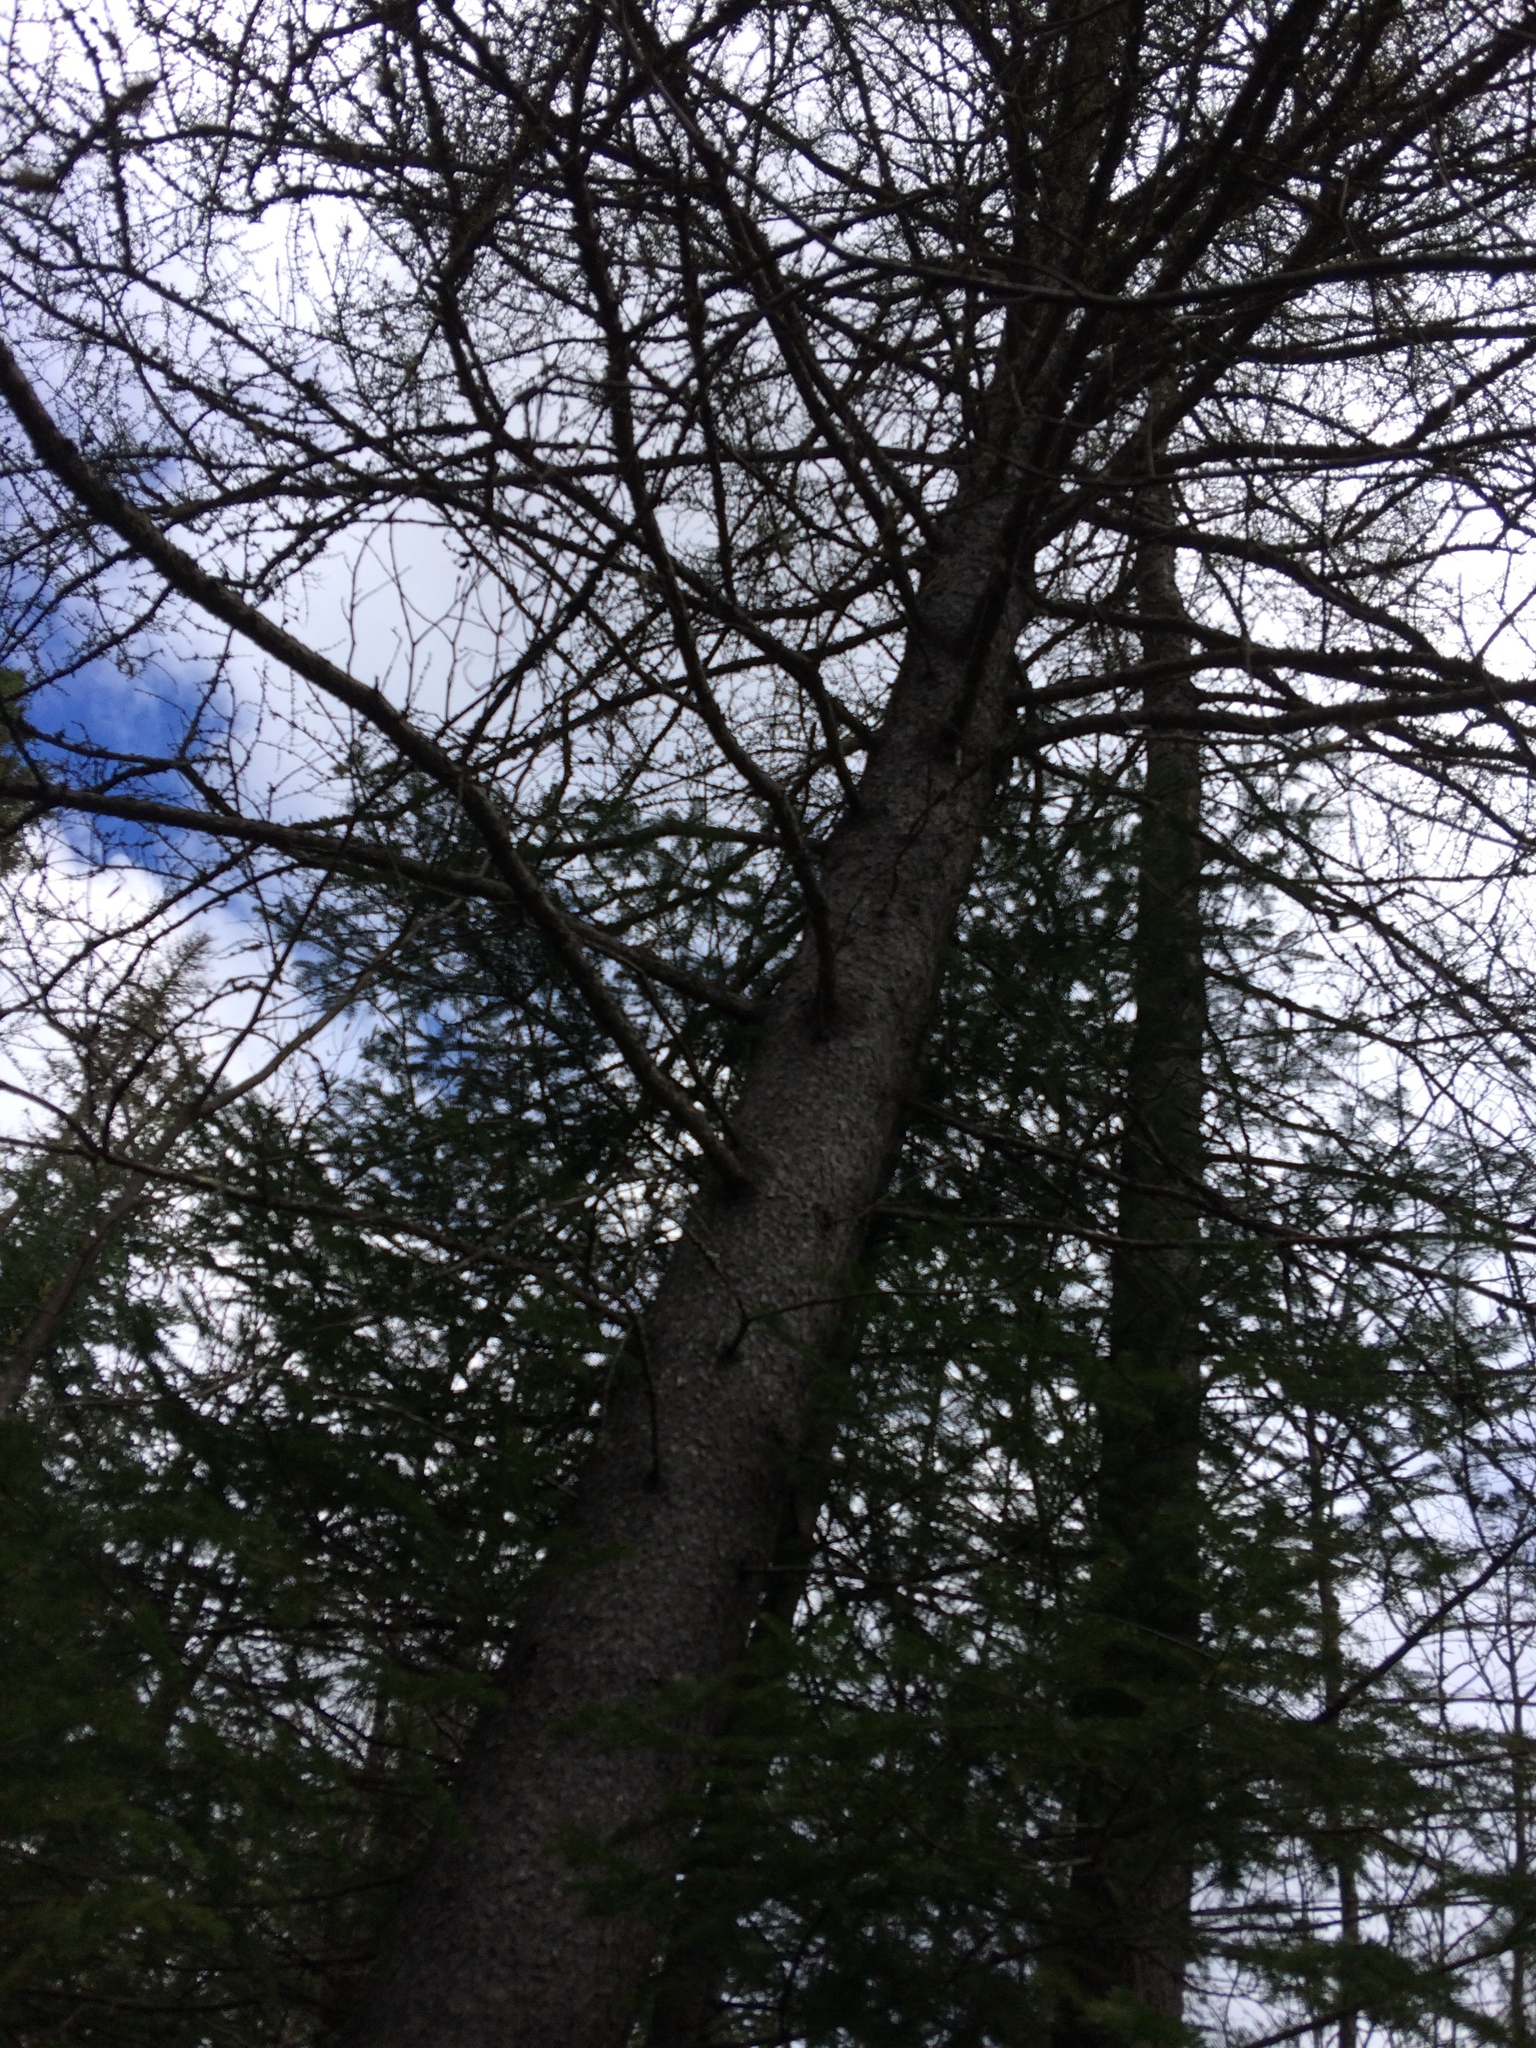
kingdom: Plantae
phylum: Tracheophyta
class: Pinopsida
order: Pinales
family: Pinaceae
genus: Larix
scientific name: Larix laricina
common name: American larch
